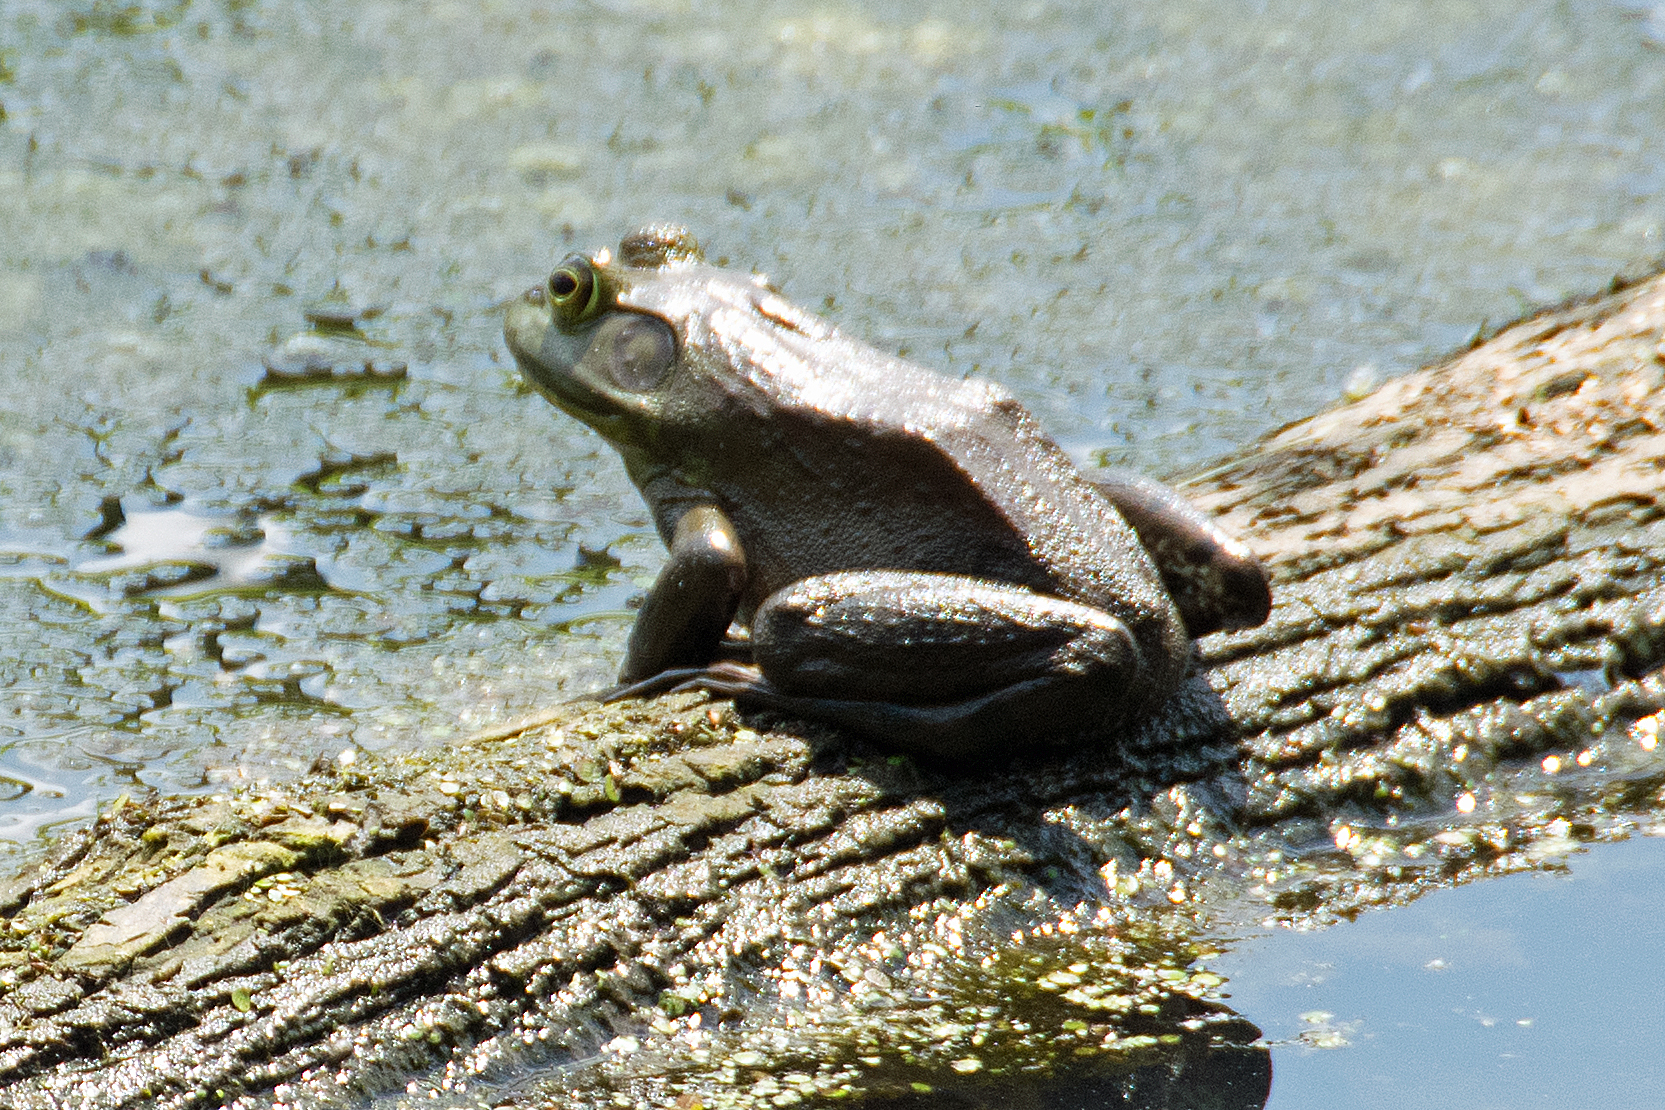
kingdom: Animalia
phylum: Chordata
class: Amphibia
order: Anura
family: Ranidae
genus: Lithobates
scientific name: Lithobates catesbeianus
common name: American bullfrog
